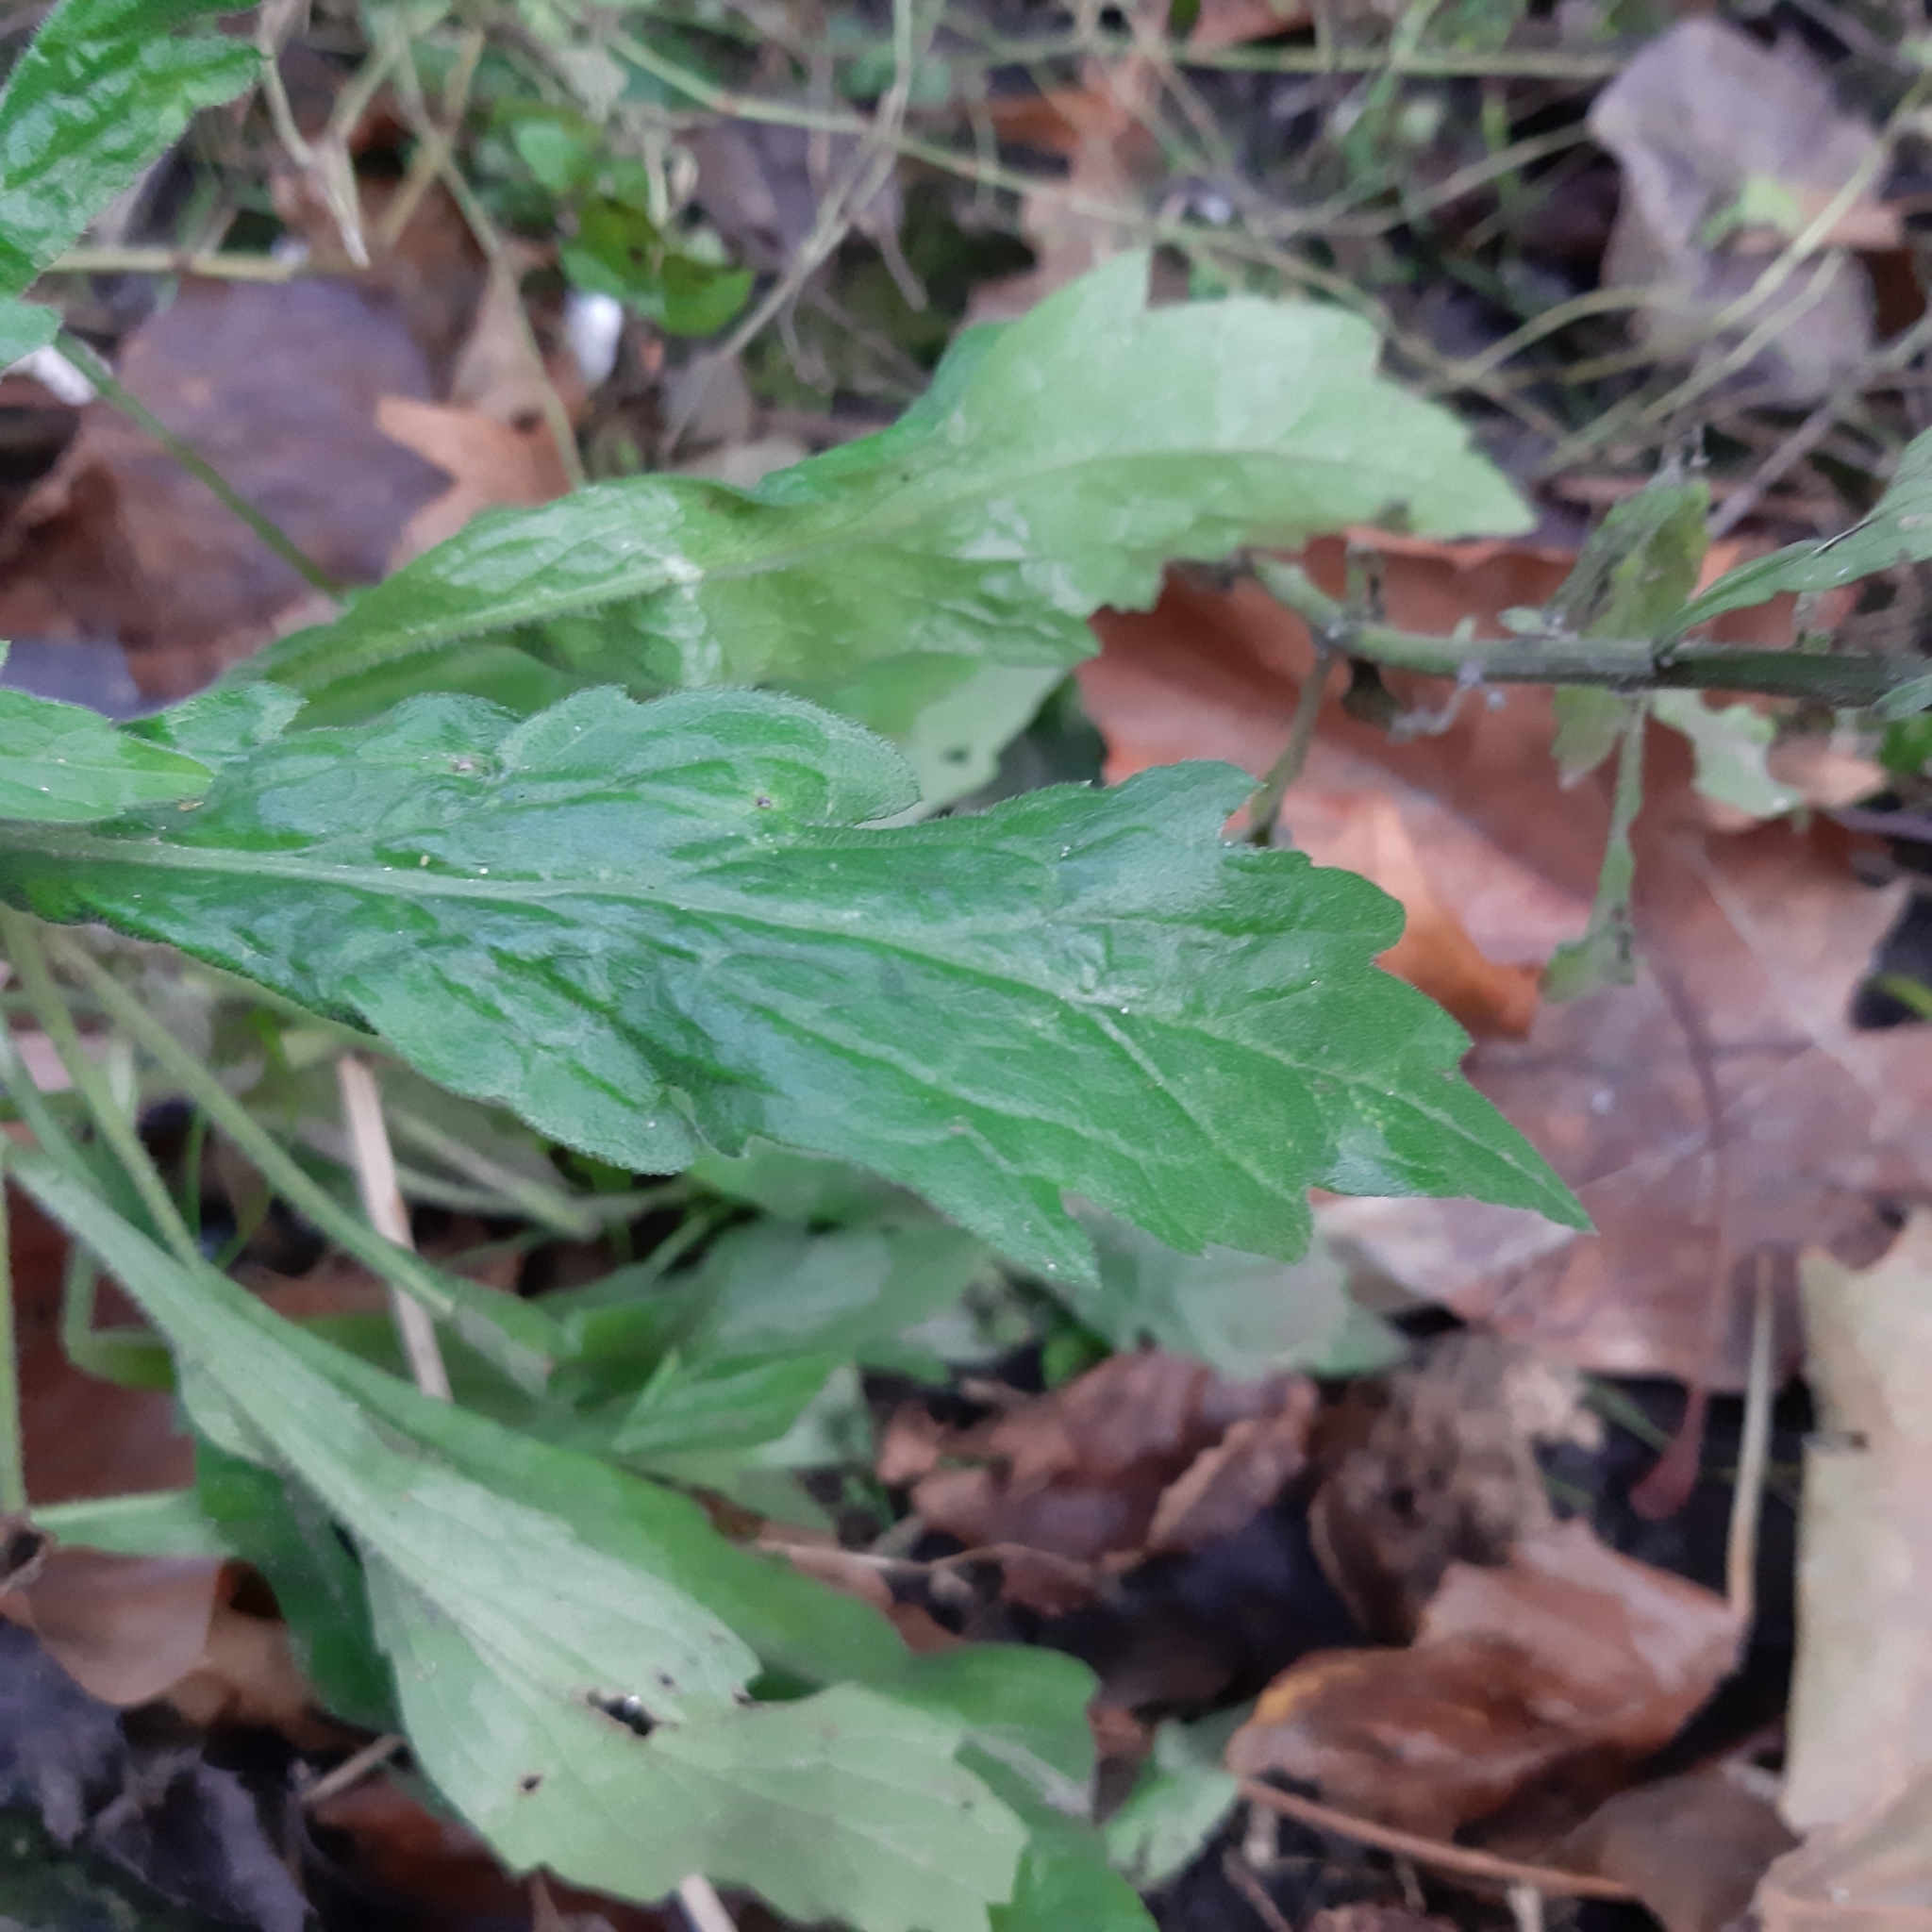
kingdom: Plantae
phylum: Tracheophyta
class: Magnoliopsida
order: Asterales
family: Asteraceae
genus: Erigeron
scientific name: Erigeron sumatrensis
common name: Daisy
